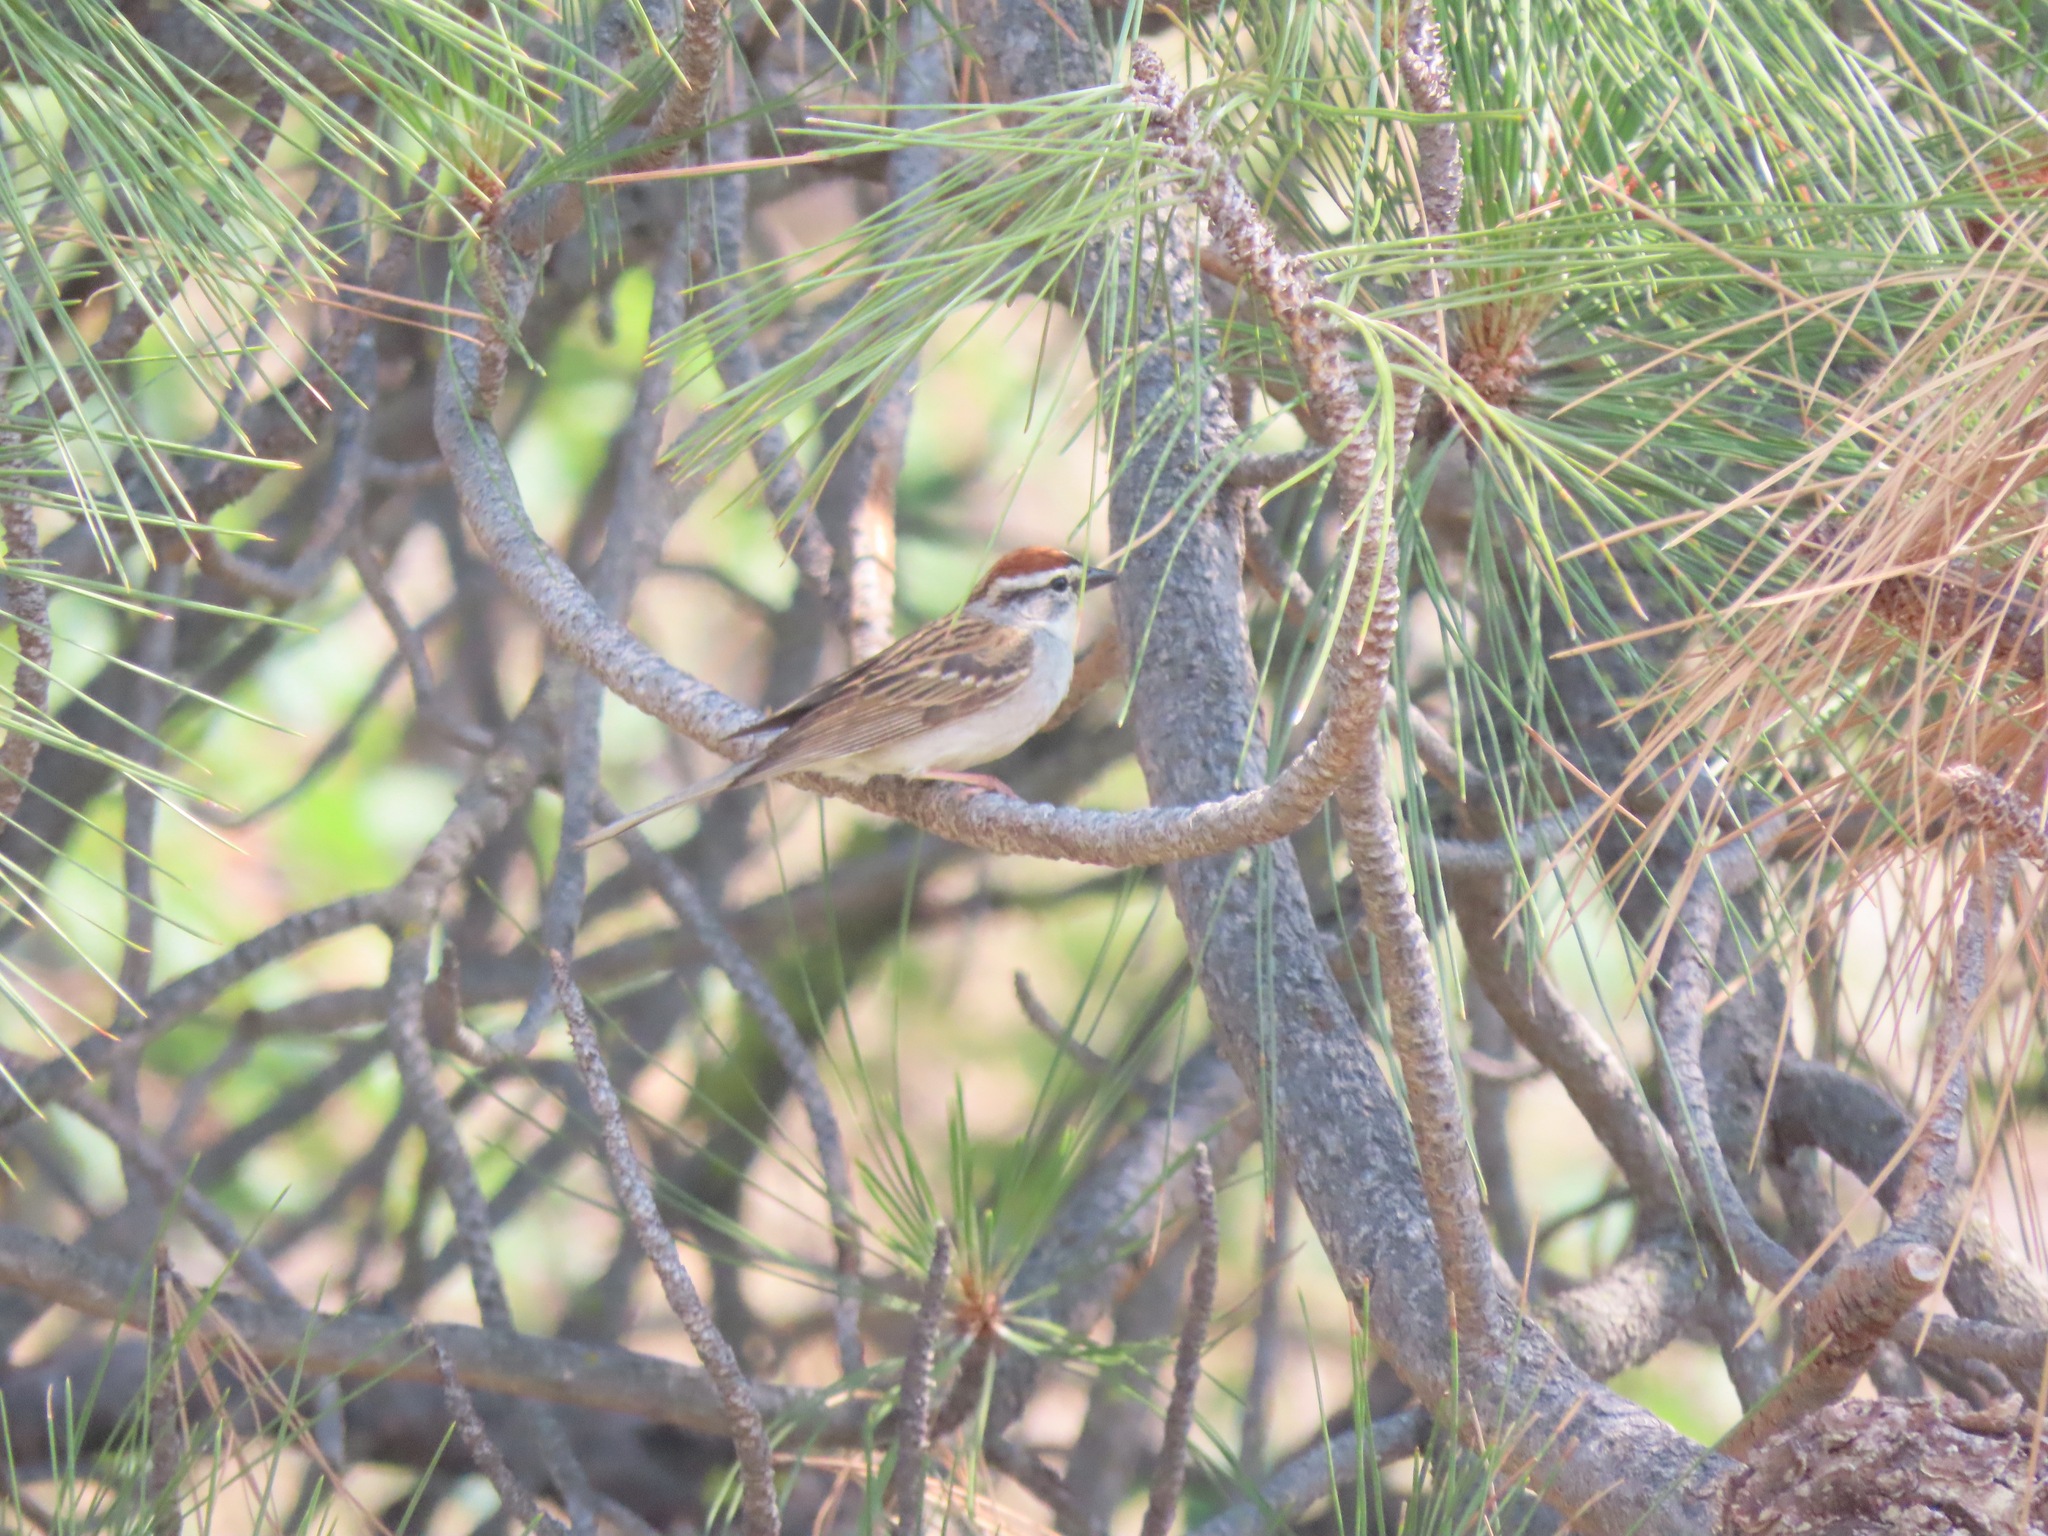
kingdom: Animalia
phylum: Chordata
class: Aves
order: Passeriformes
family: Passerellidae
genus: Spizella
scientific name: Spizella passerina
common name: Chipping sparrow
